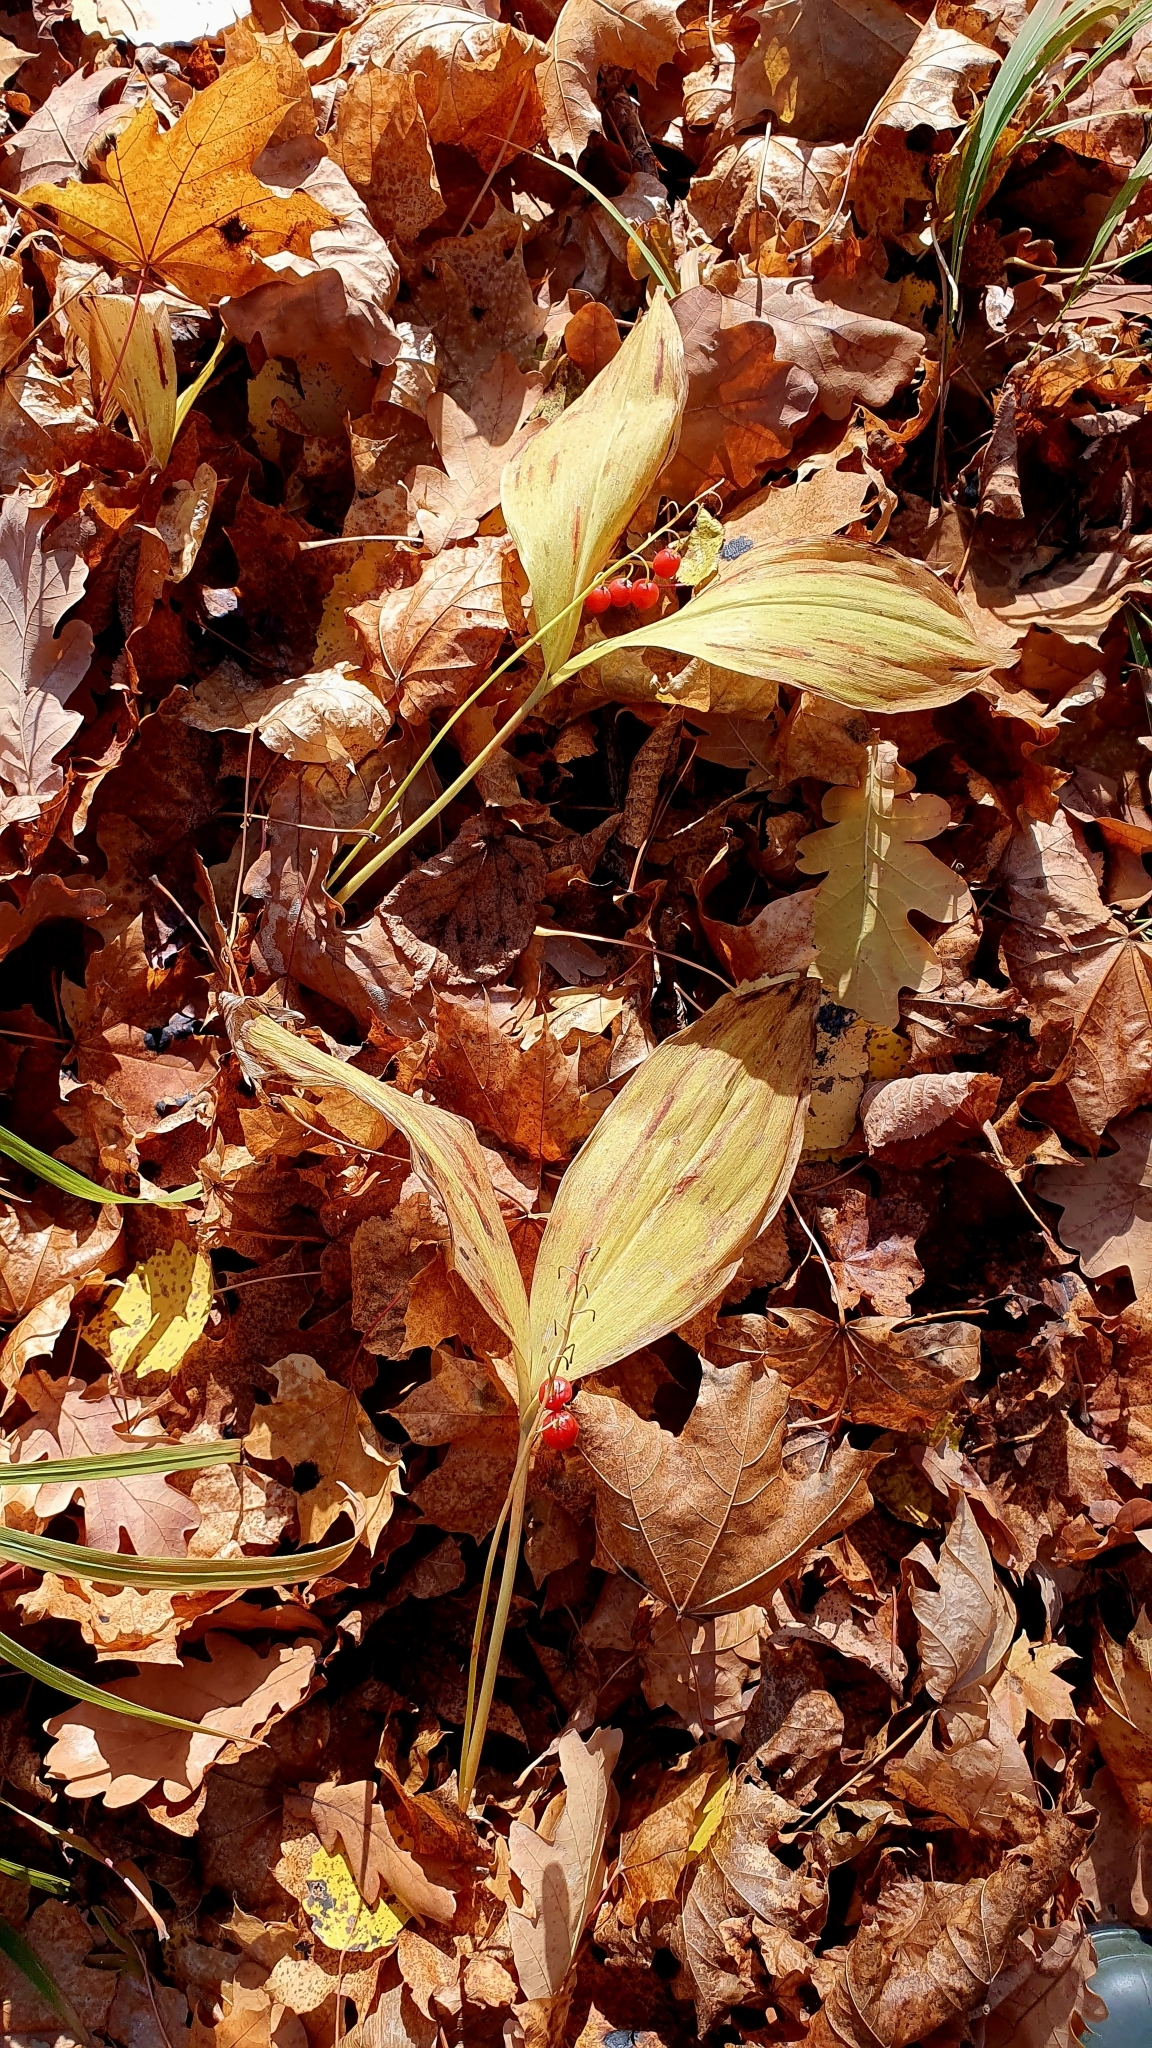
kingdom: Plantae
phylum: Tracheophyta
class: Liliopsida
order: Asparagales
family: Asparagaceae
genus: Convallaria
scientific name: Convallaria majalis
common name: Lily-of-the-valley
